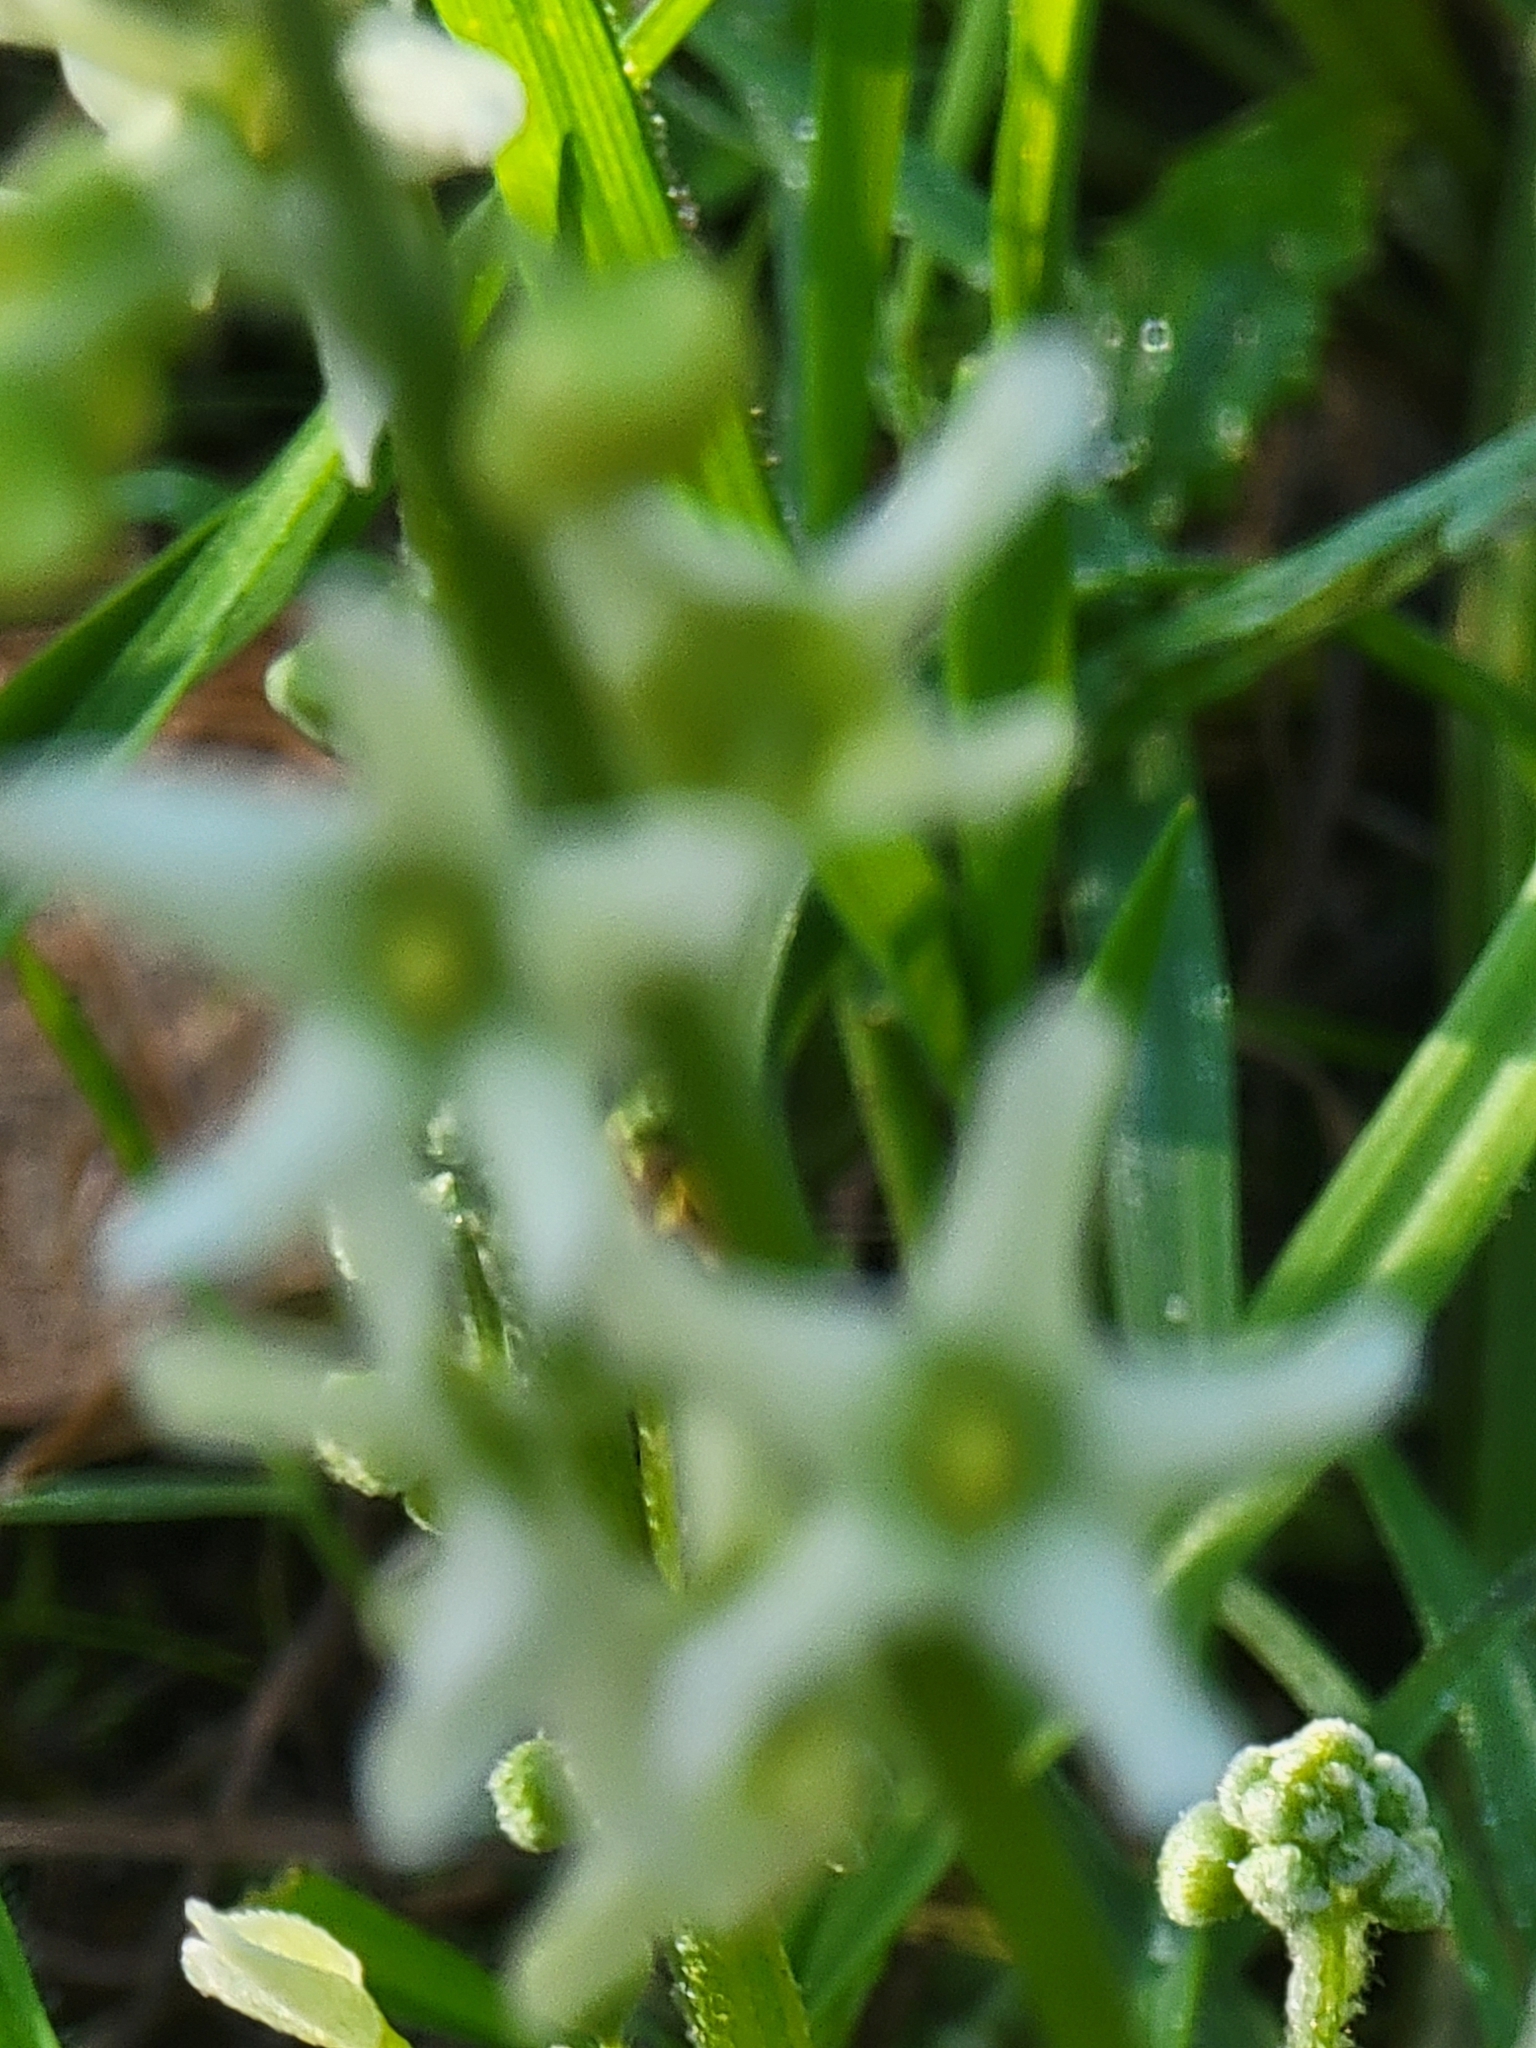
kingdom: Plantae
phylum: Tracheophyta
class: Magnoliopsida
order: Cucurbitales
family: Cucurbitaceae
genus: Marah
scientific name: Marah fabacea
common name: California manroot
